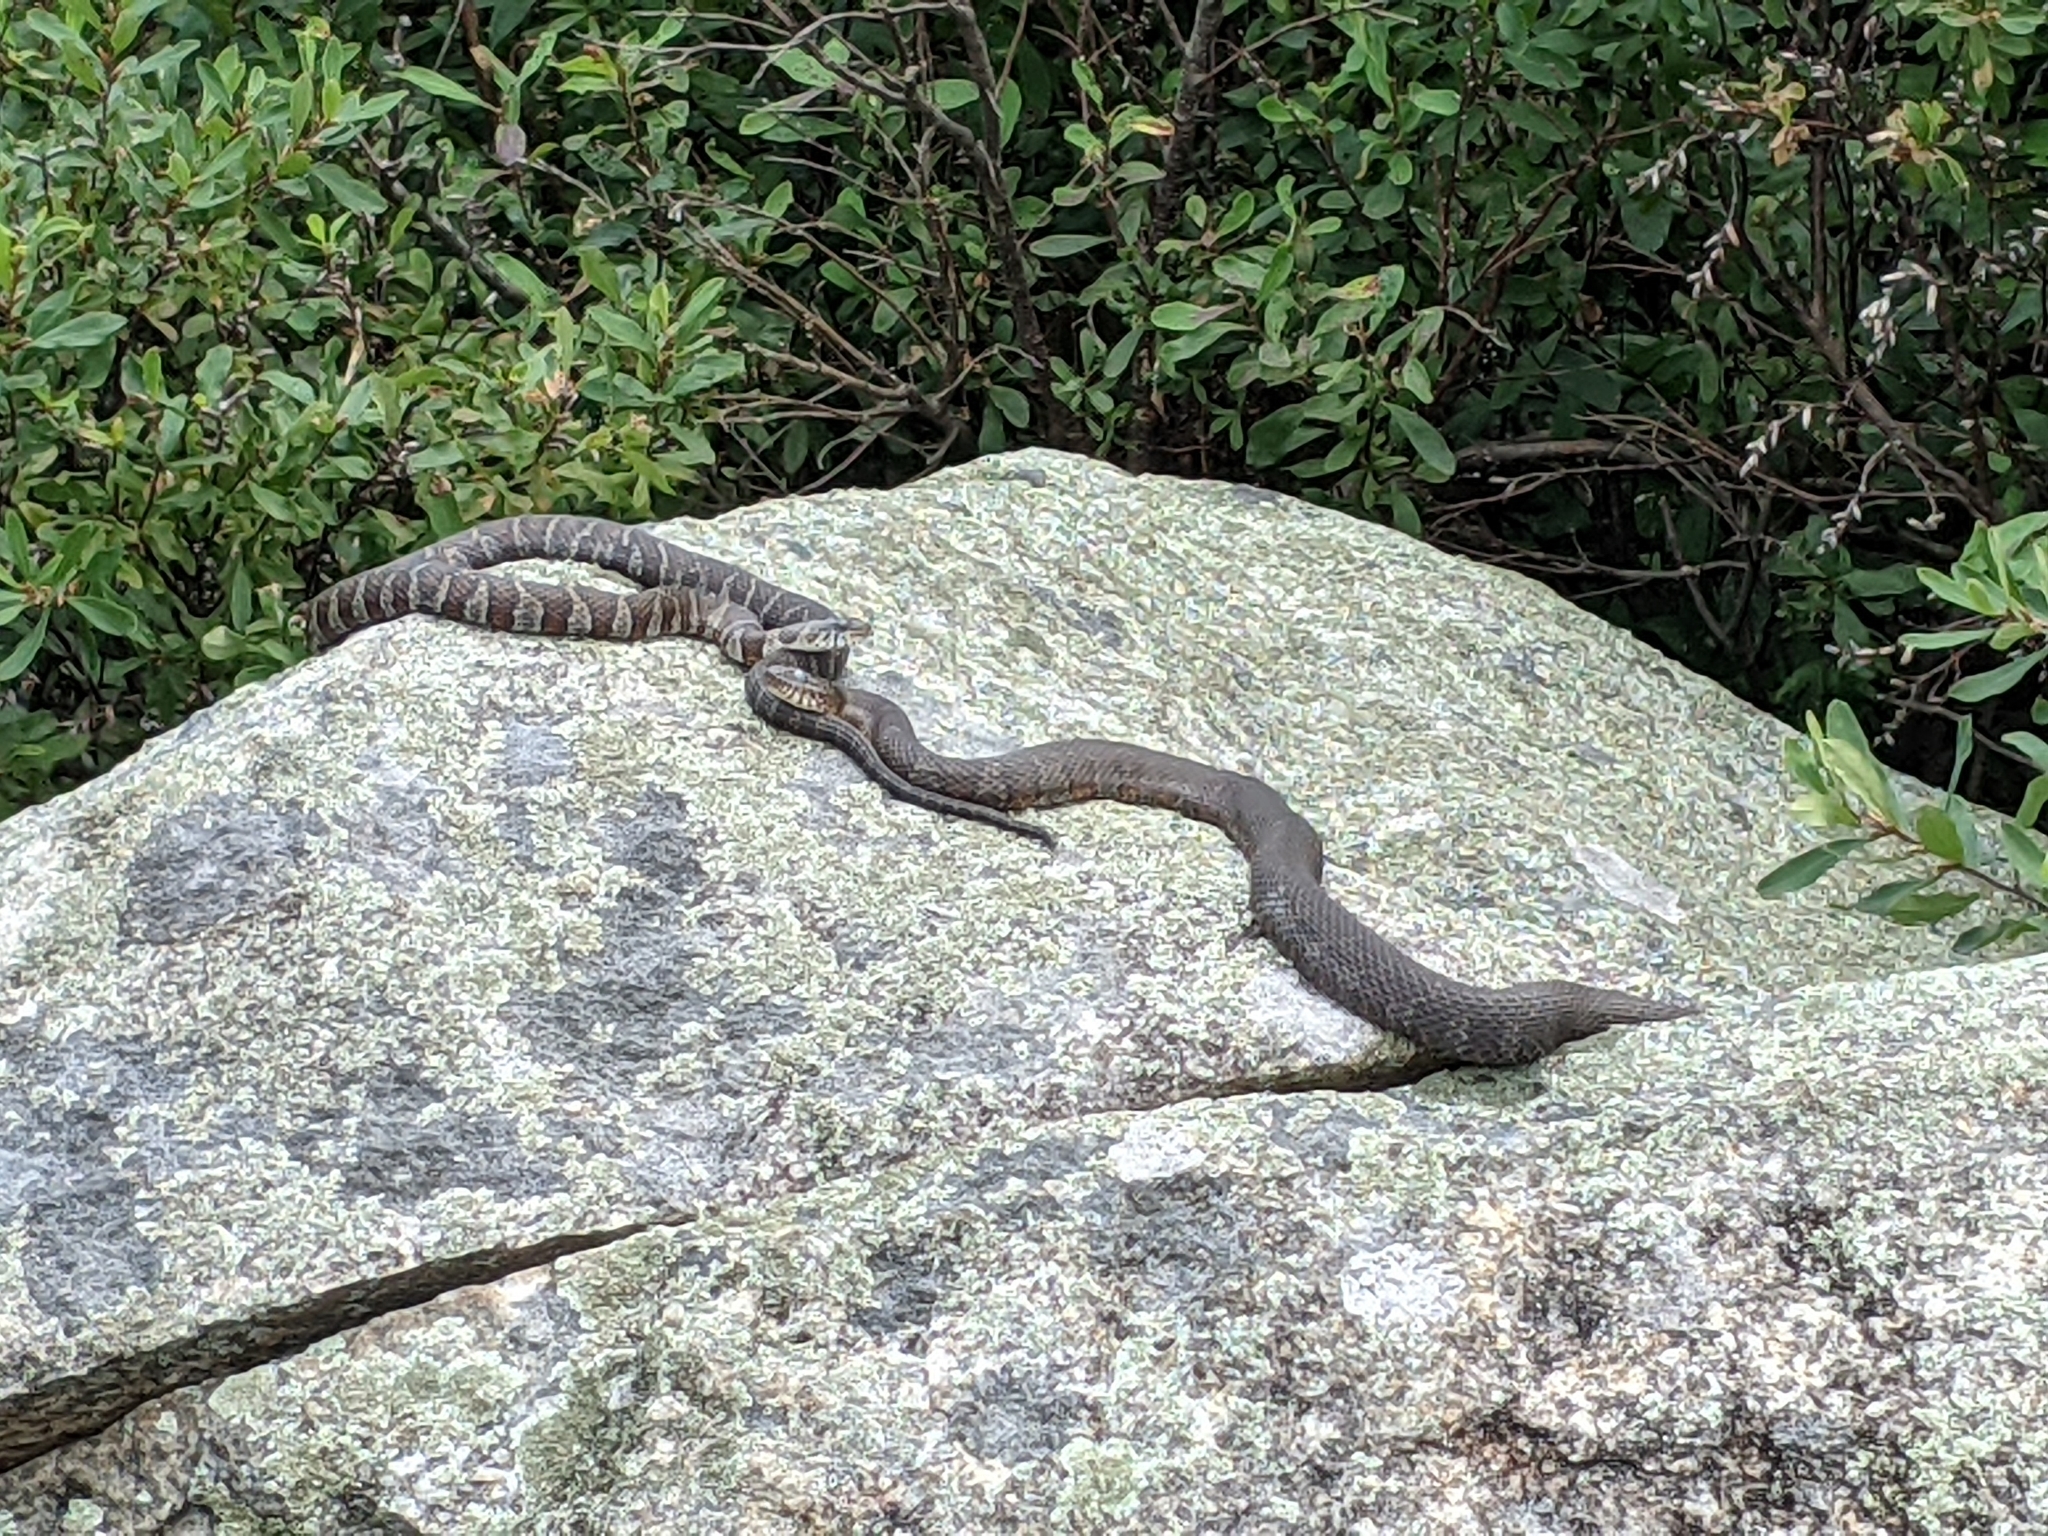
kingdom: Animalia
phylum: Chordata
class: Squamata
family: Colubridae
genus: Nerodia
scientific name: Nerodia sipedon
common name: Northern water snake
